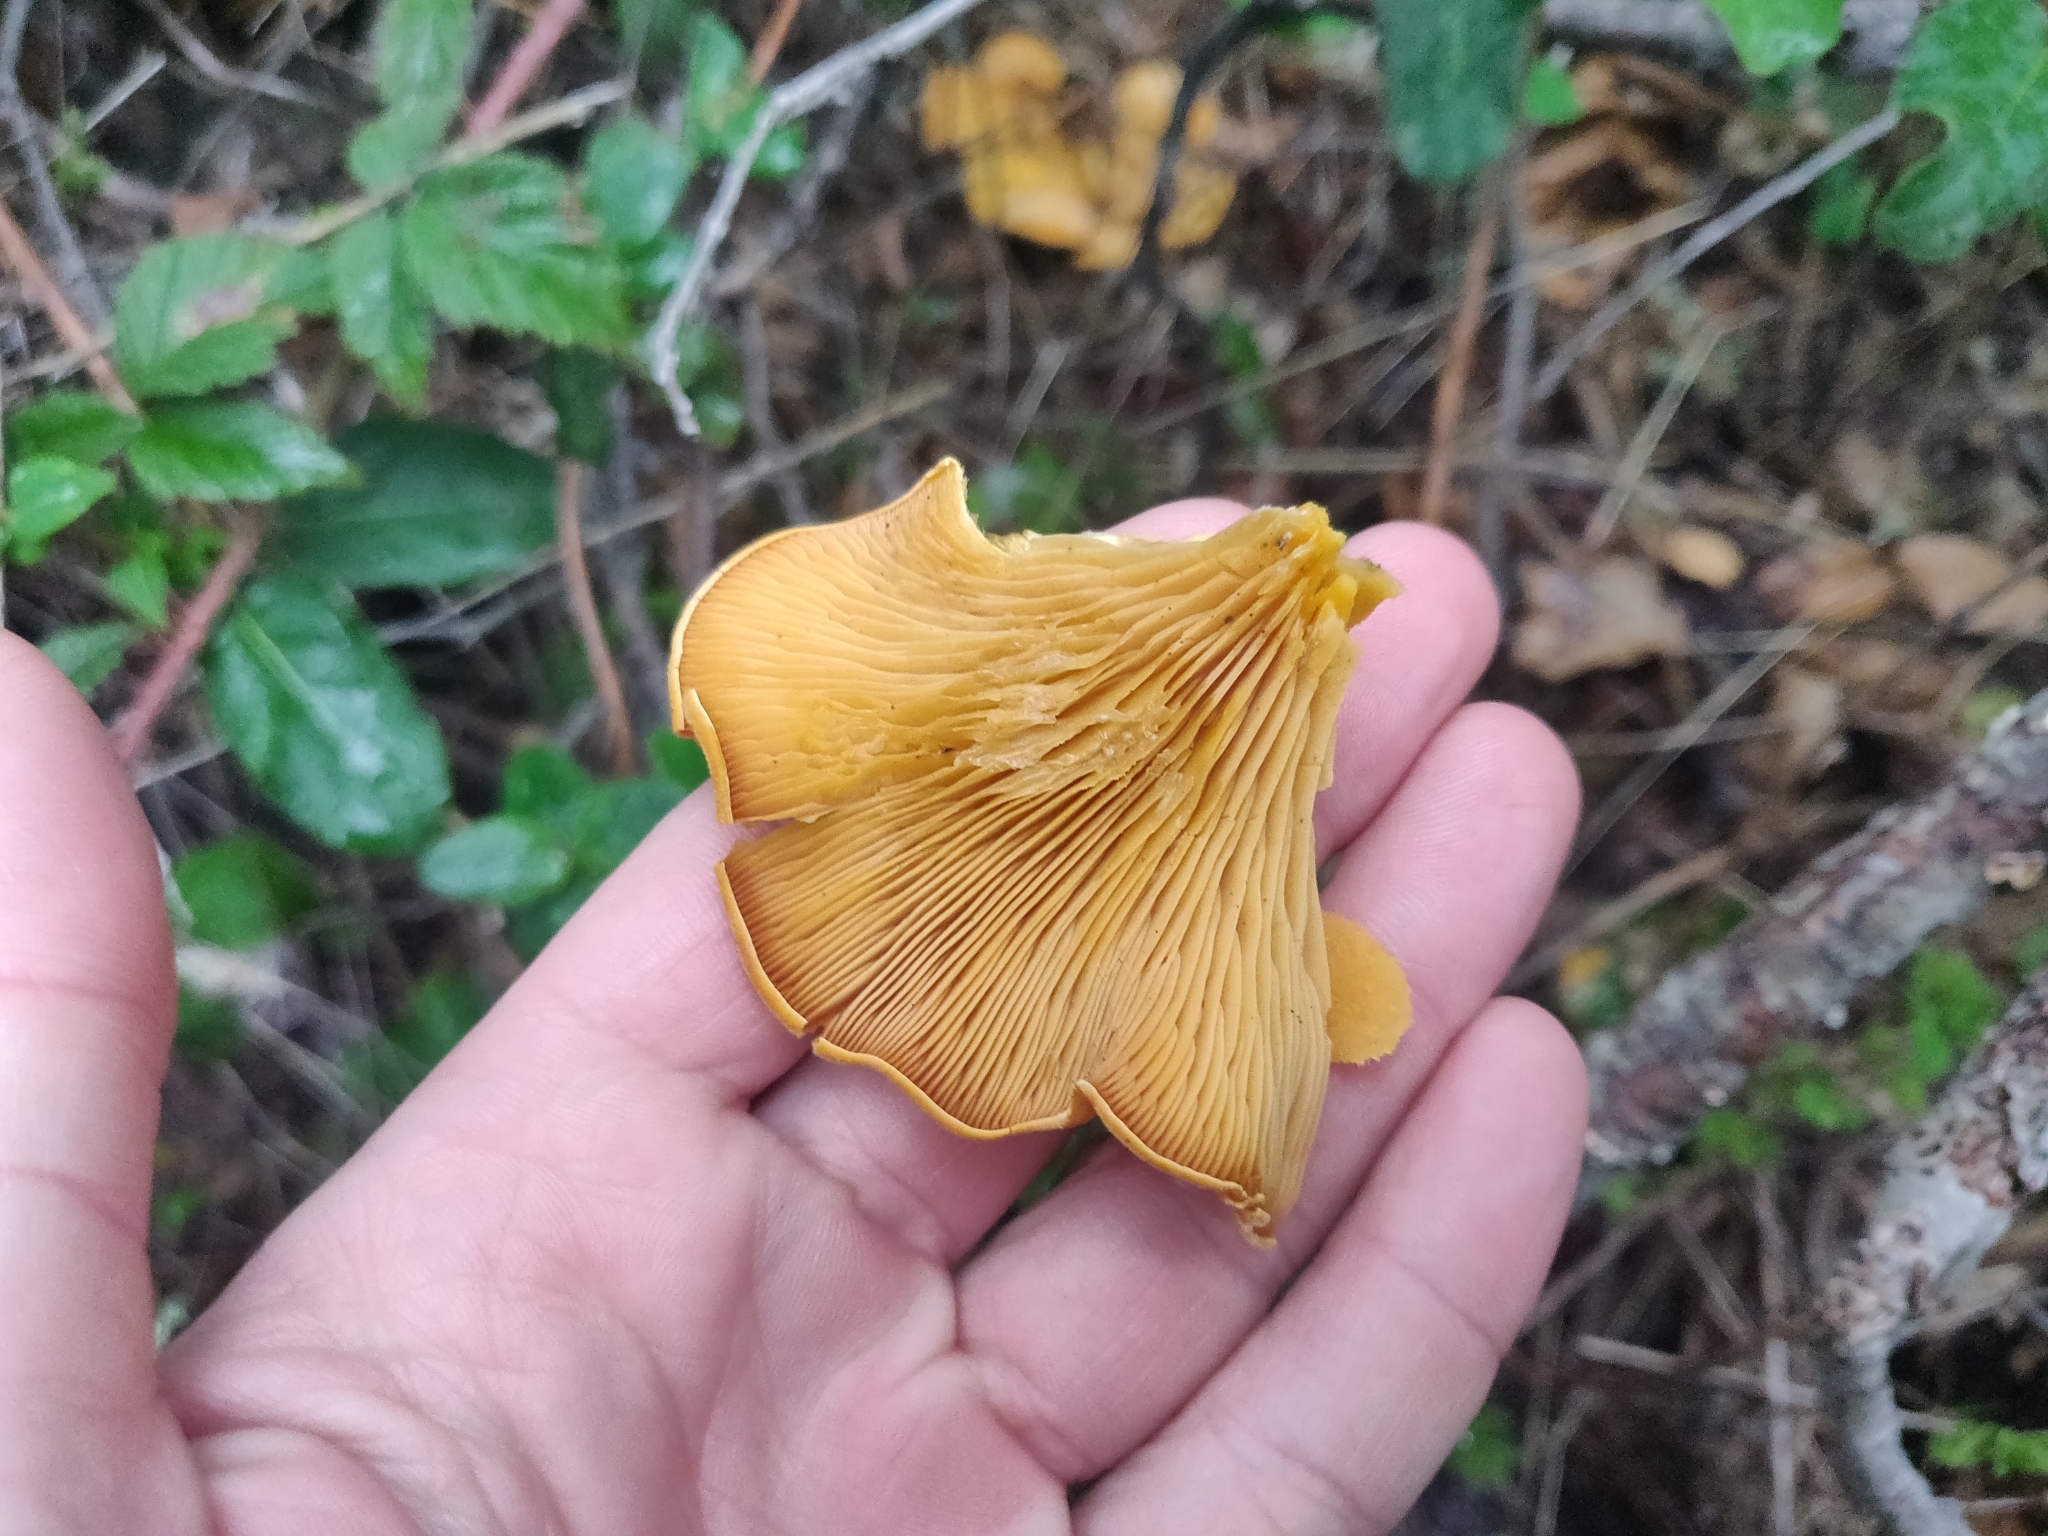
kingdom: Fungi
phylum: Basidiomycota
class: Agaricomycetes
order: Agaricales
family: Phyllotopsidaceae
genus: Phyllotopsis
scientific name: Phyllotopsis nidulans
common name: Orange mock oyster
